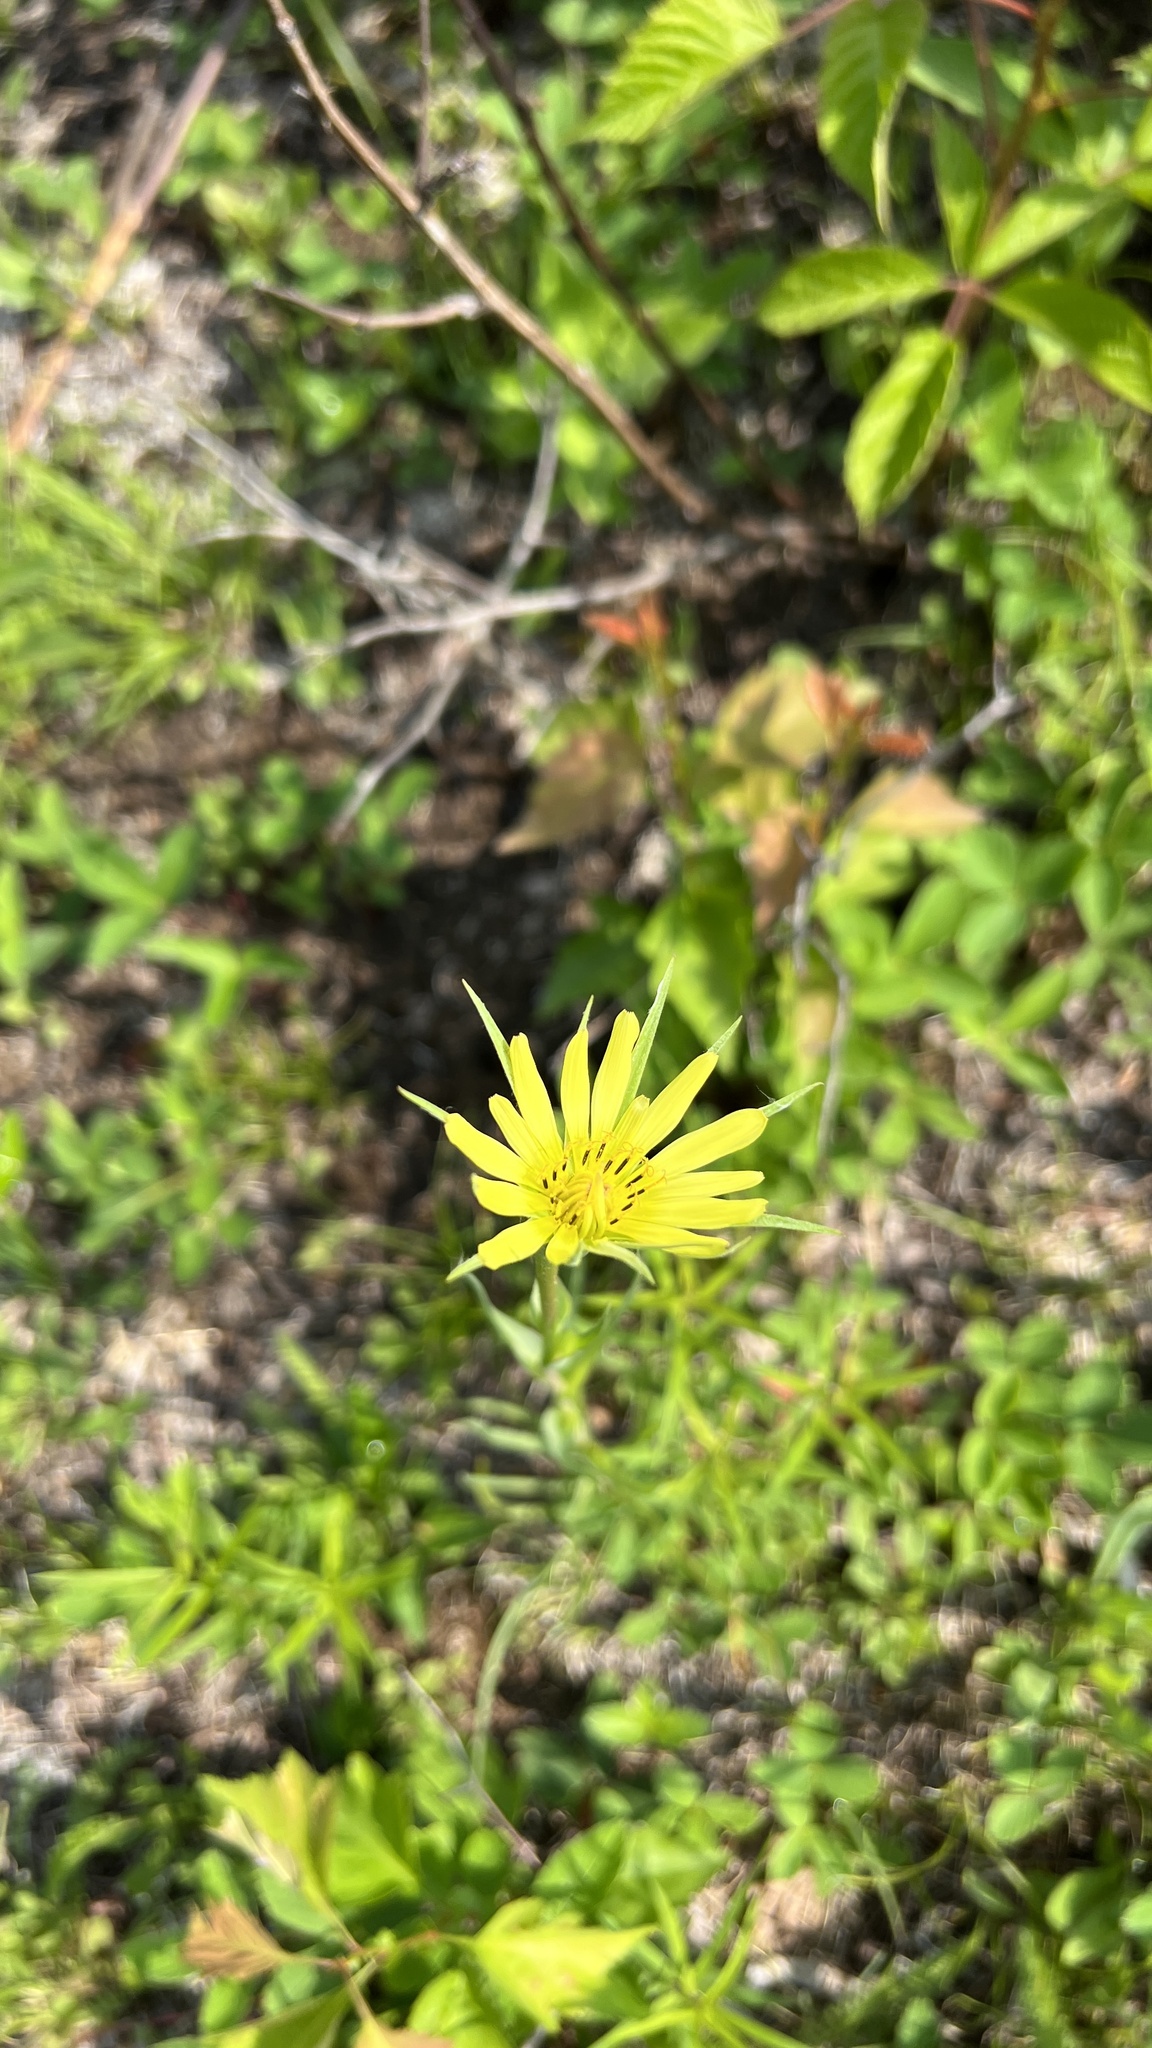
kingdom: Plantae
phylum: Tracheophyta
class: Magnoliopsida
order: Asterales
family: Asteraceae
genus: Tragopogon
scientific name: Tragopogon dubius
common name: Yellow salsify
